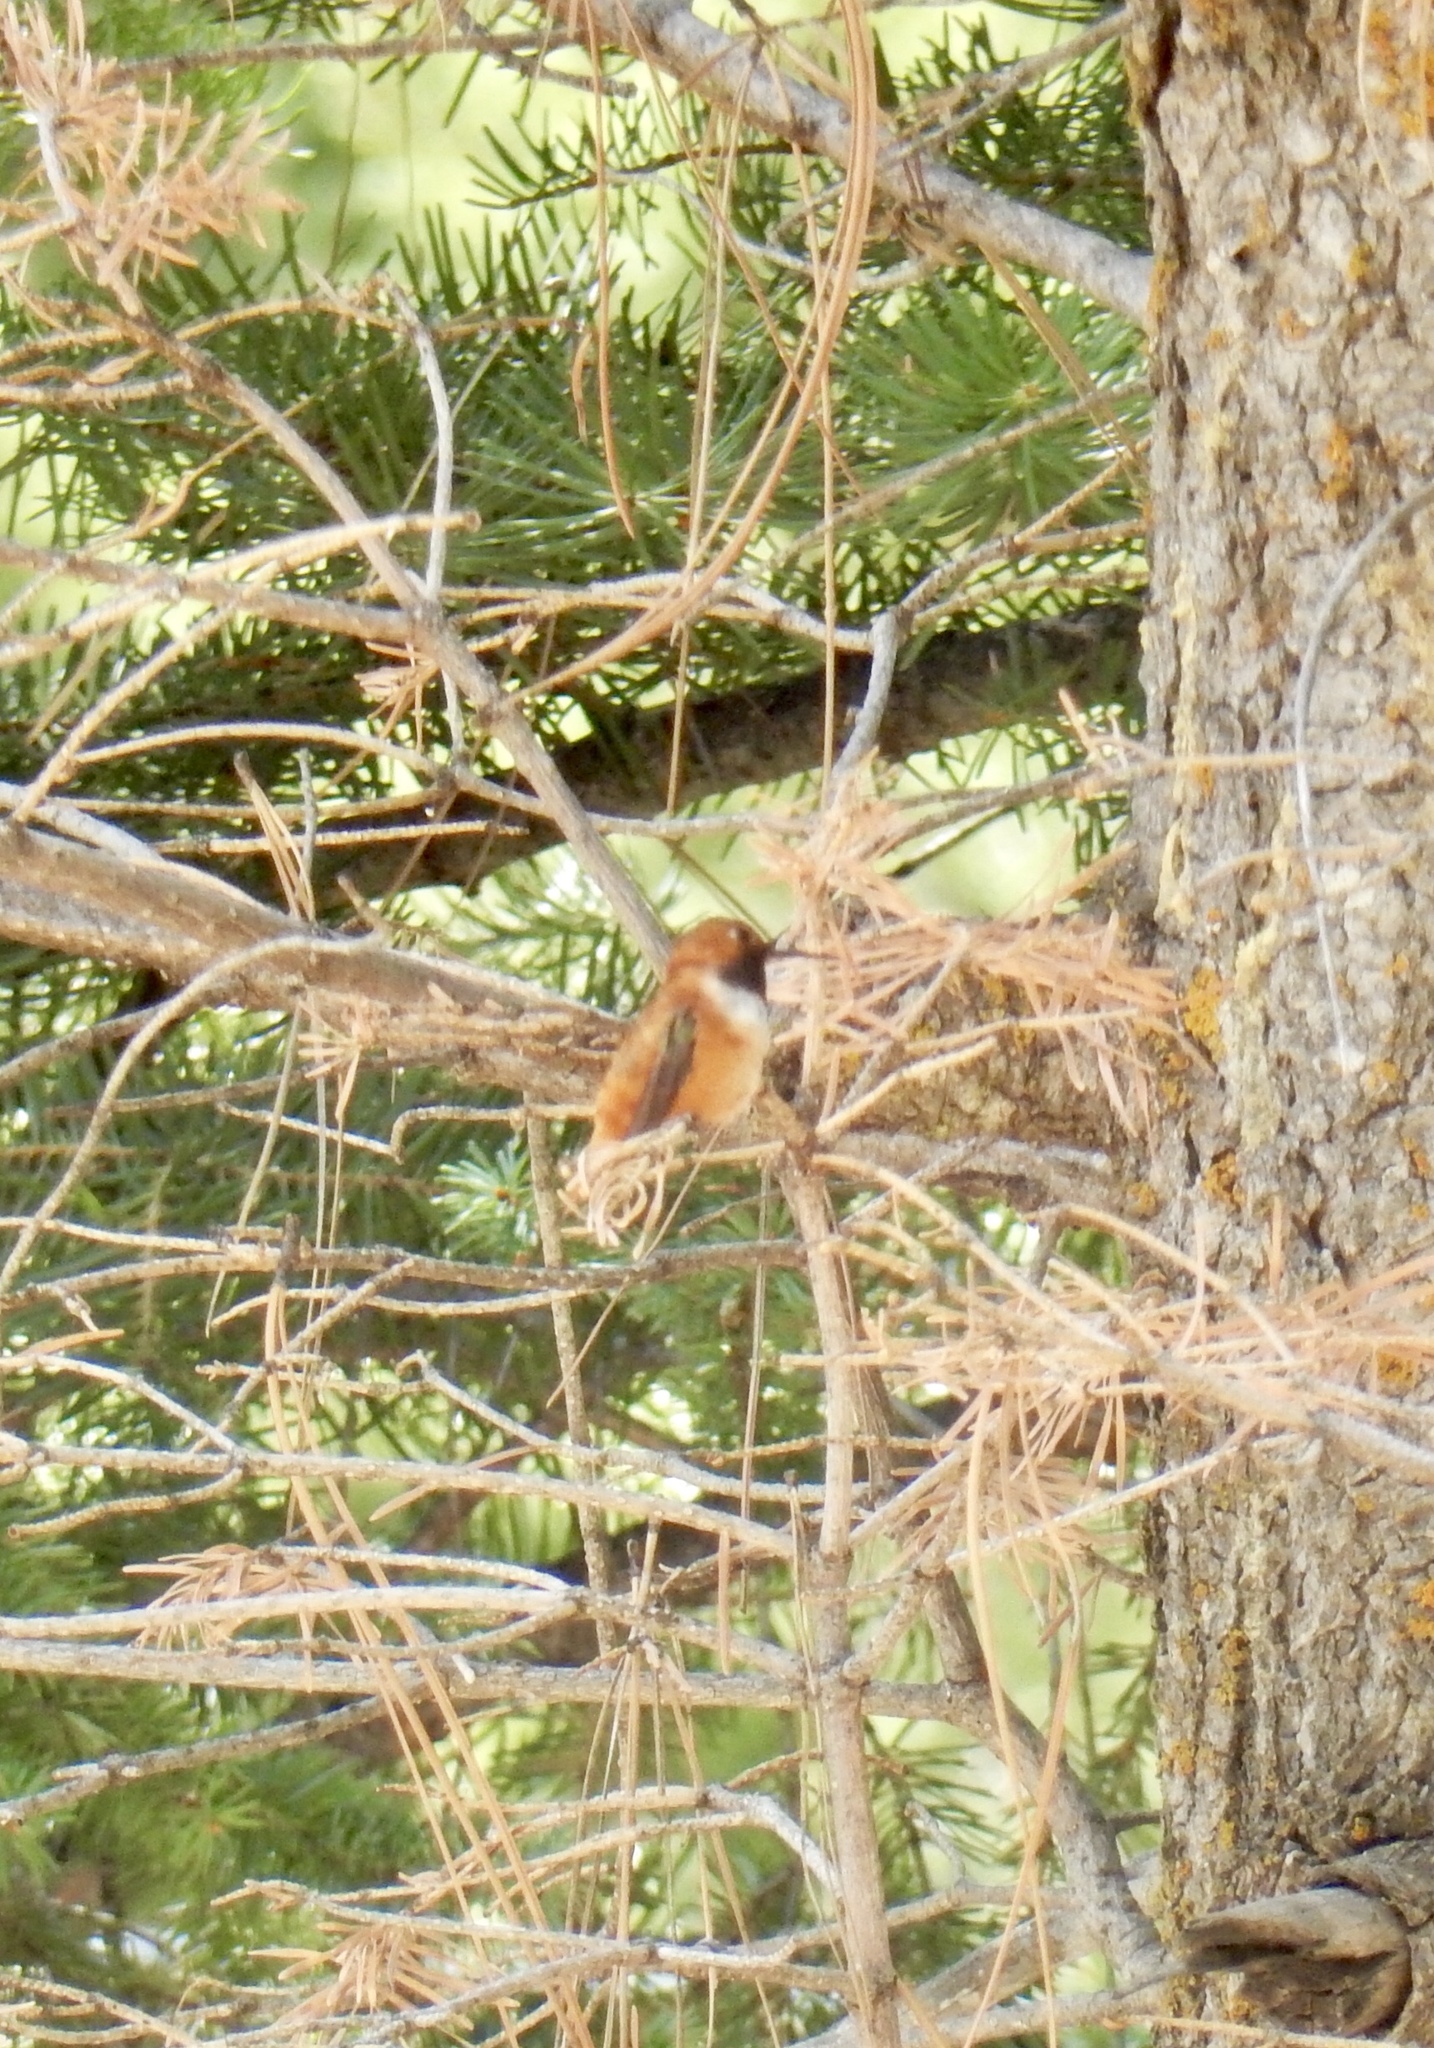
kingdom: Animalia
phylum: Chordata
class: Aves
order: Apodiformes
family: Trochilidae
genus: Selasphorus
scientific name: Selasphorus rufus
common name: Rufous hummingbird
